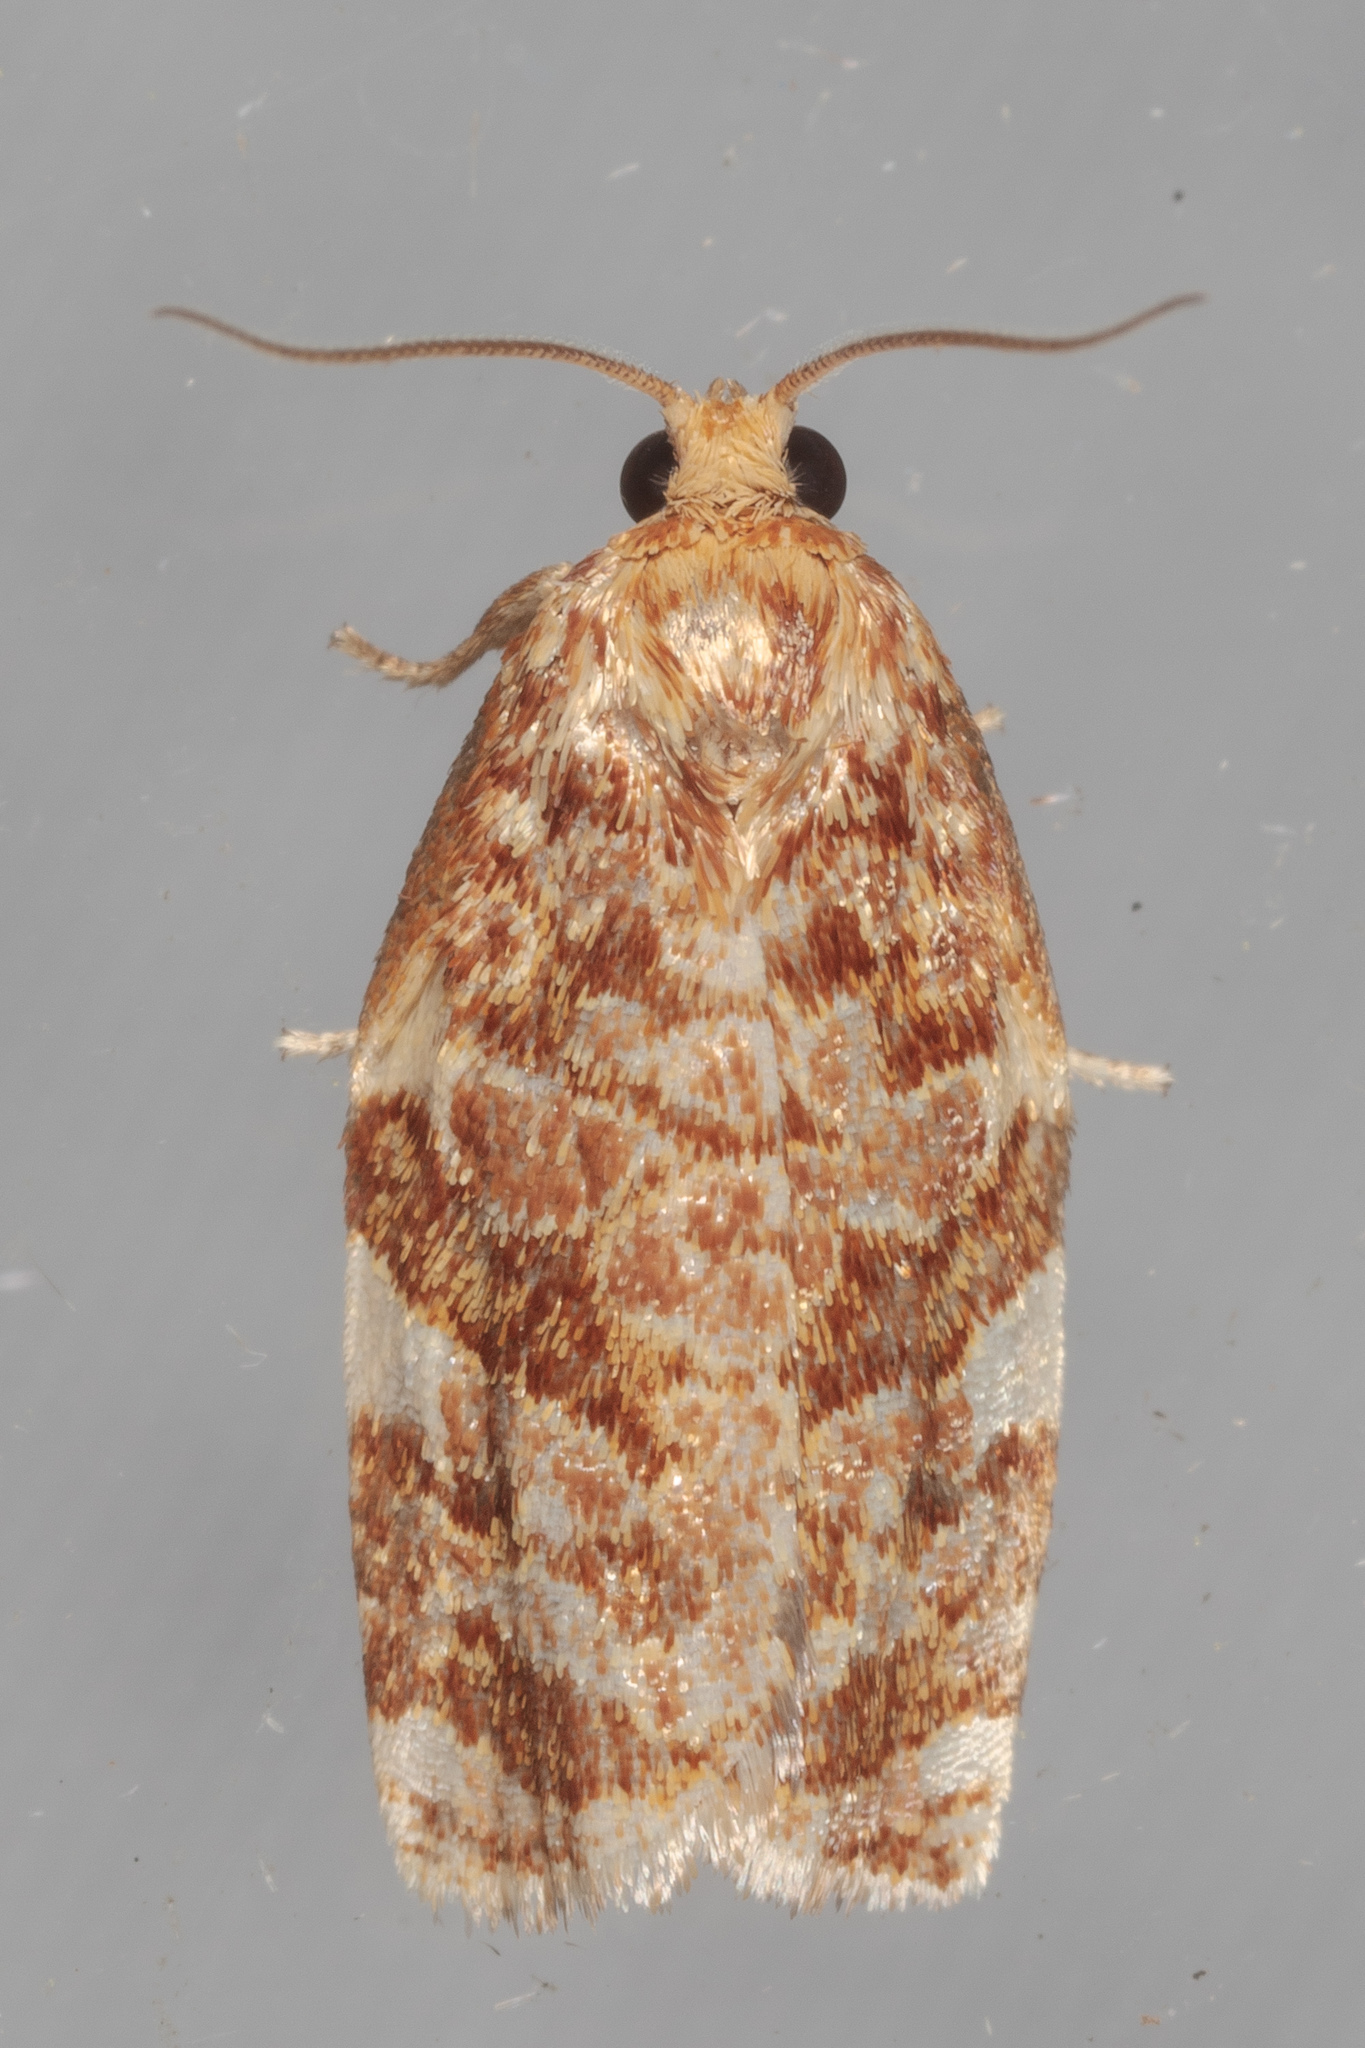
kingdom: Animalia
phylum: Arthropoda
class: Insecta
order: Lepidoptera
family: Tortricidae
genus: Archips
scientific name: Archips argyrospila
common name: Fruit-tree leafroller moth
